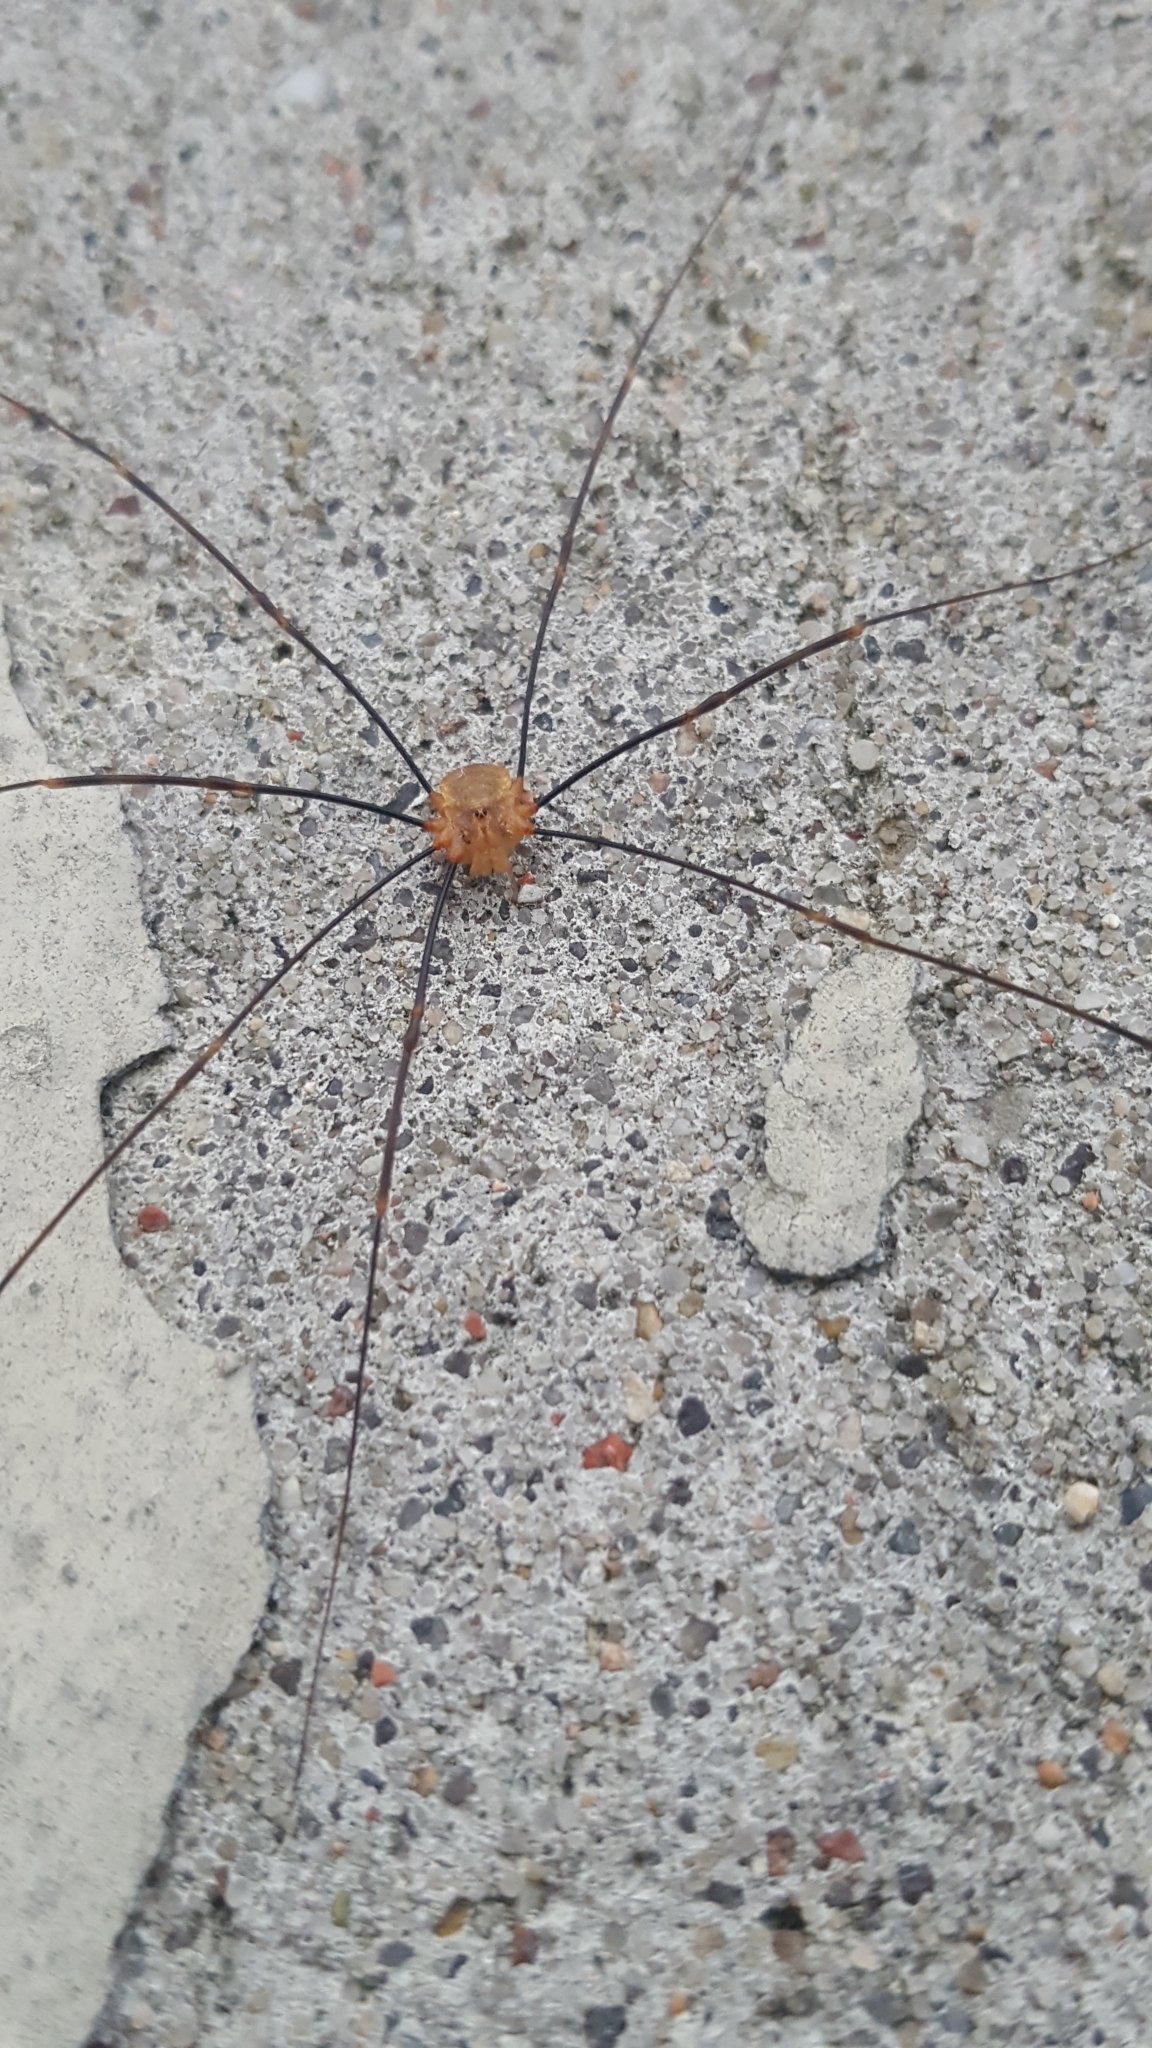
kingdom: Animalia
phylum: Arthropoda
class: Arachnida
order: Opiliones
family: Phalangiidae
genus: Opilio
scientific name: Opilio canestrinii
